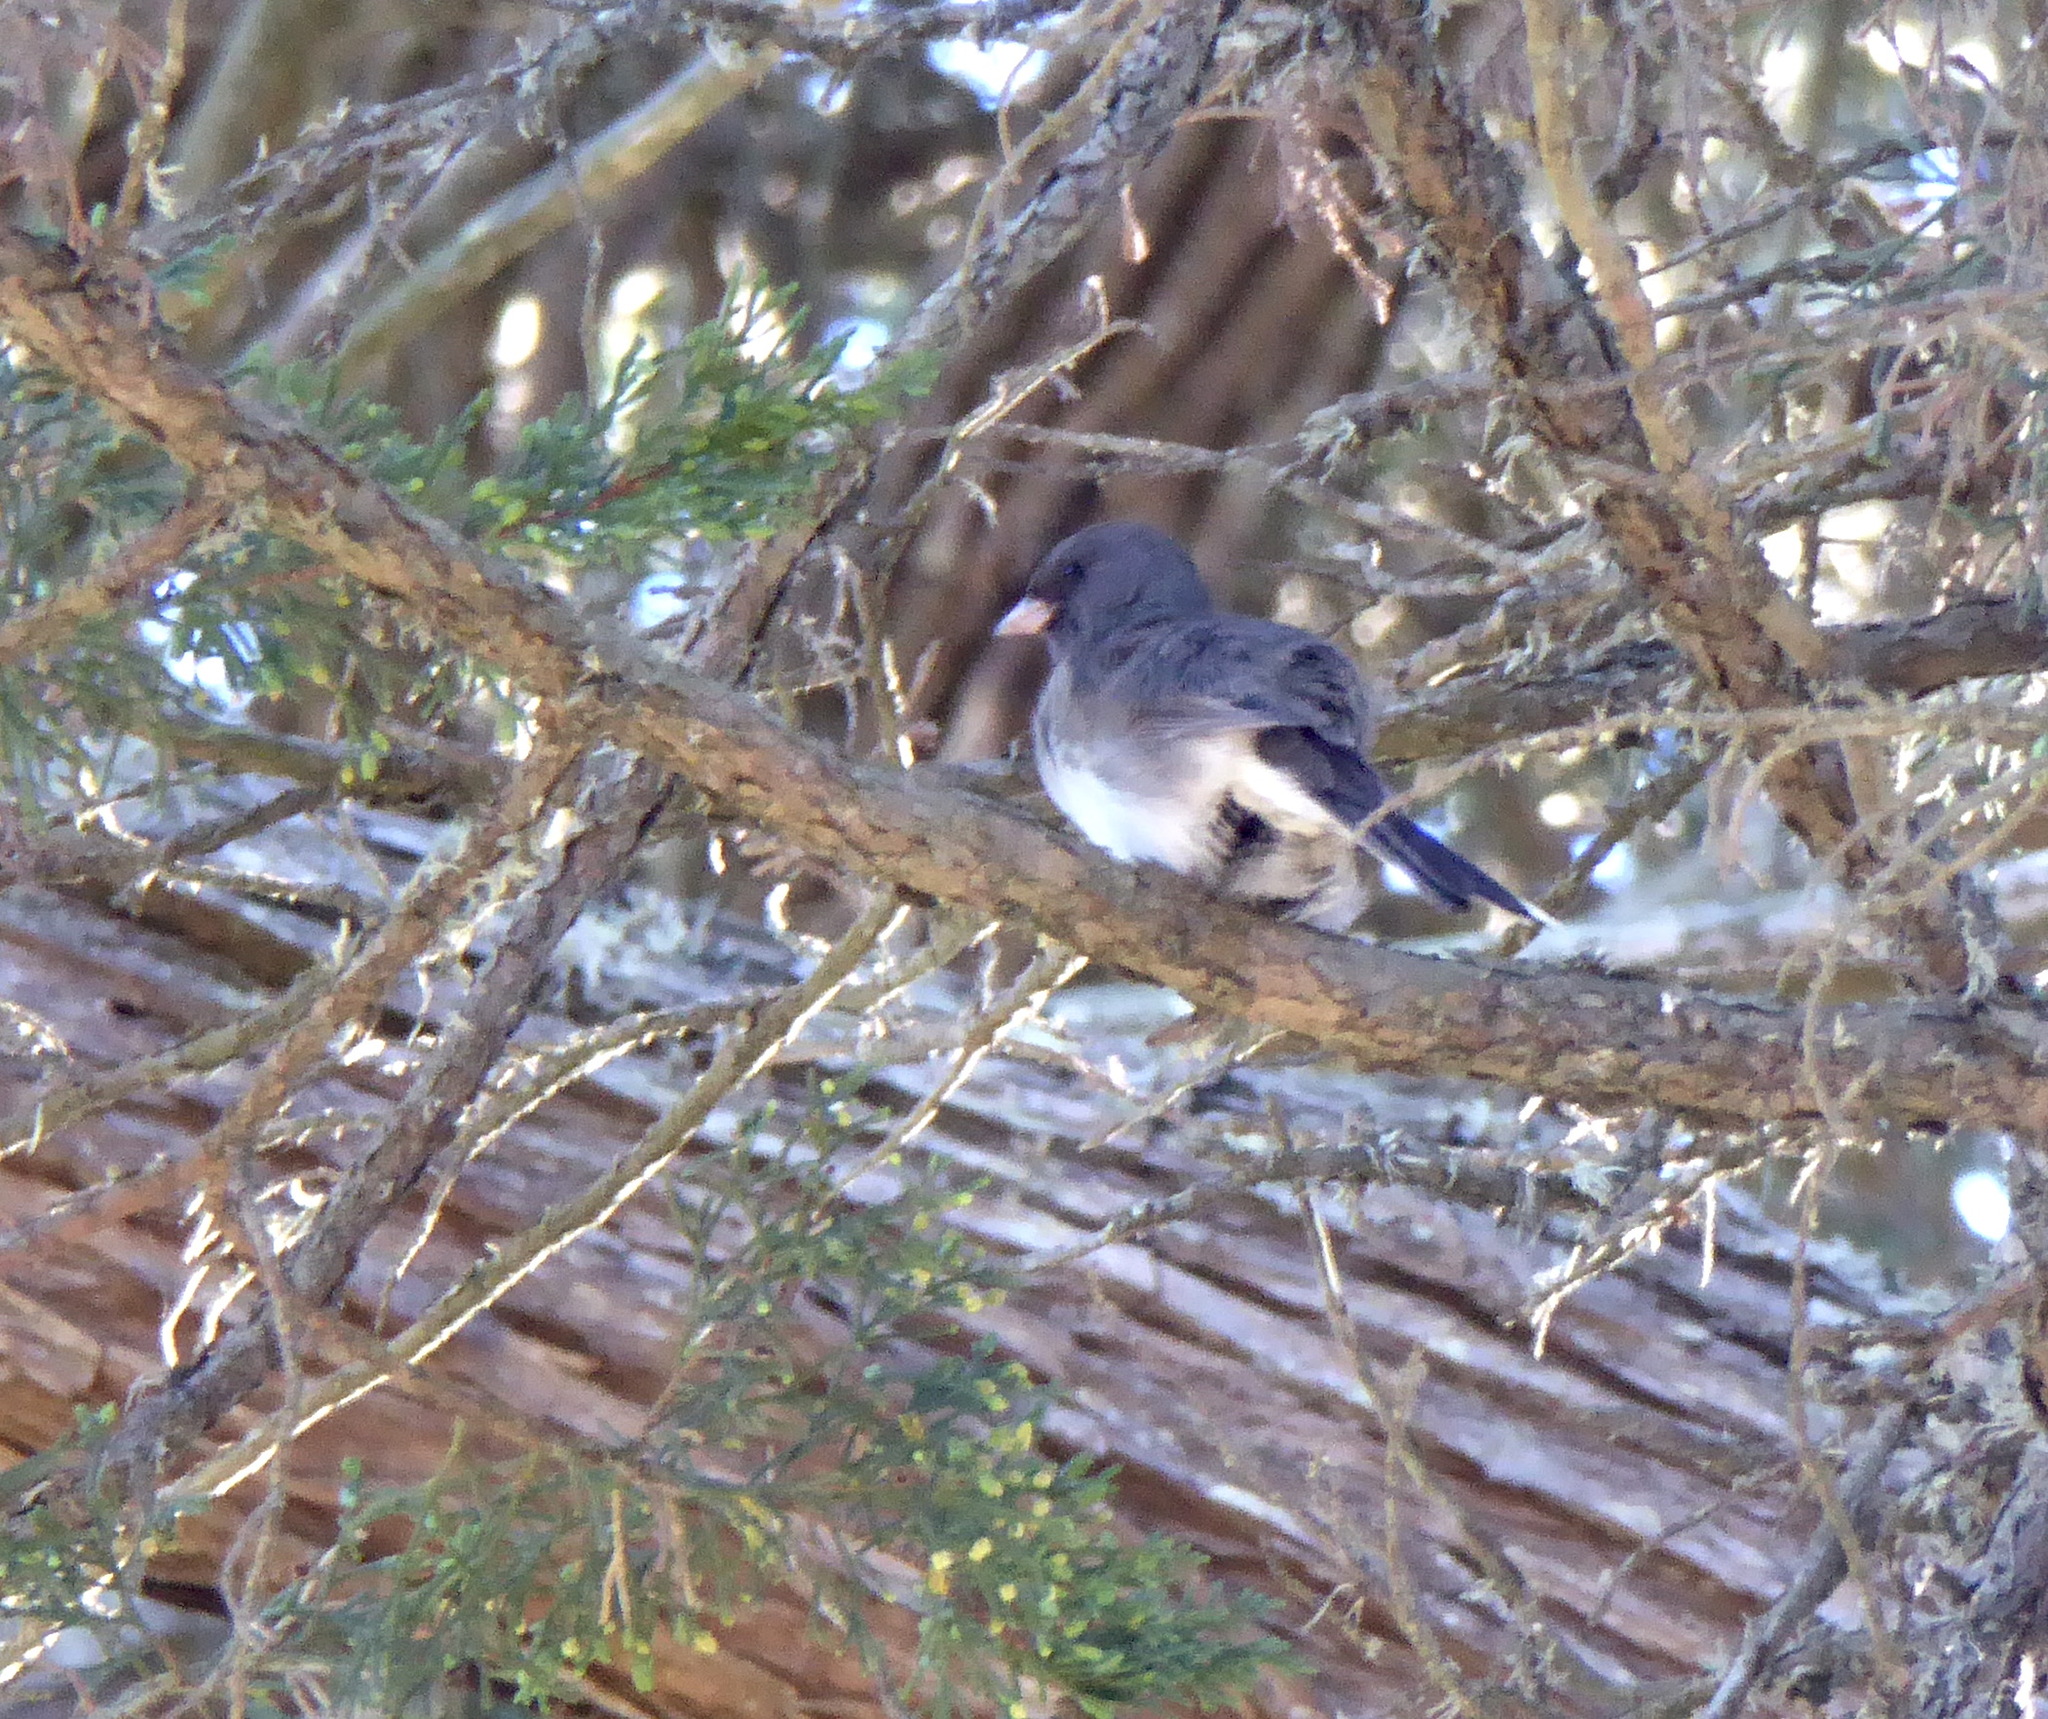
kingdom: Animalia
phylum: Chordata
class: Aves
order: Passeriformes
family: Passerellidae
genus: Junco
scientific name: Junco hyemalis
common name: Dark-eyed junco
